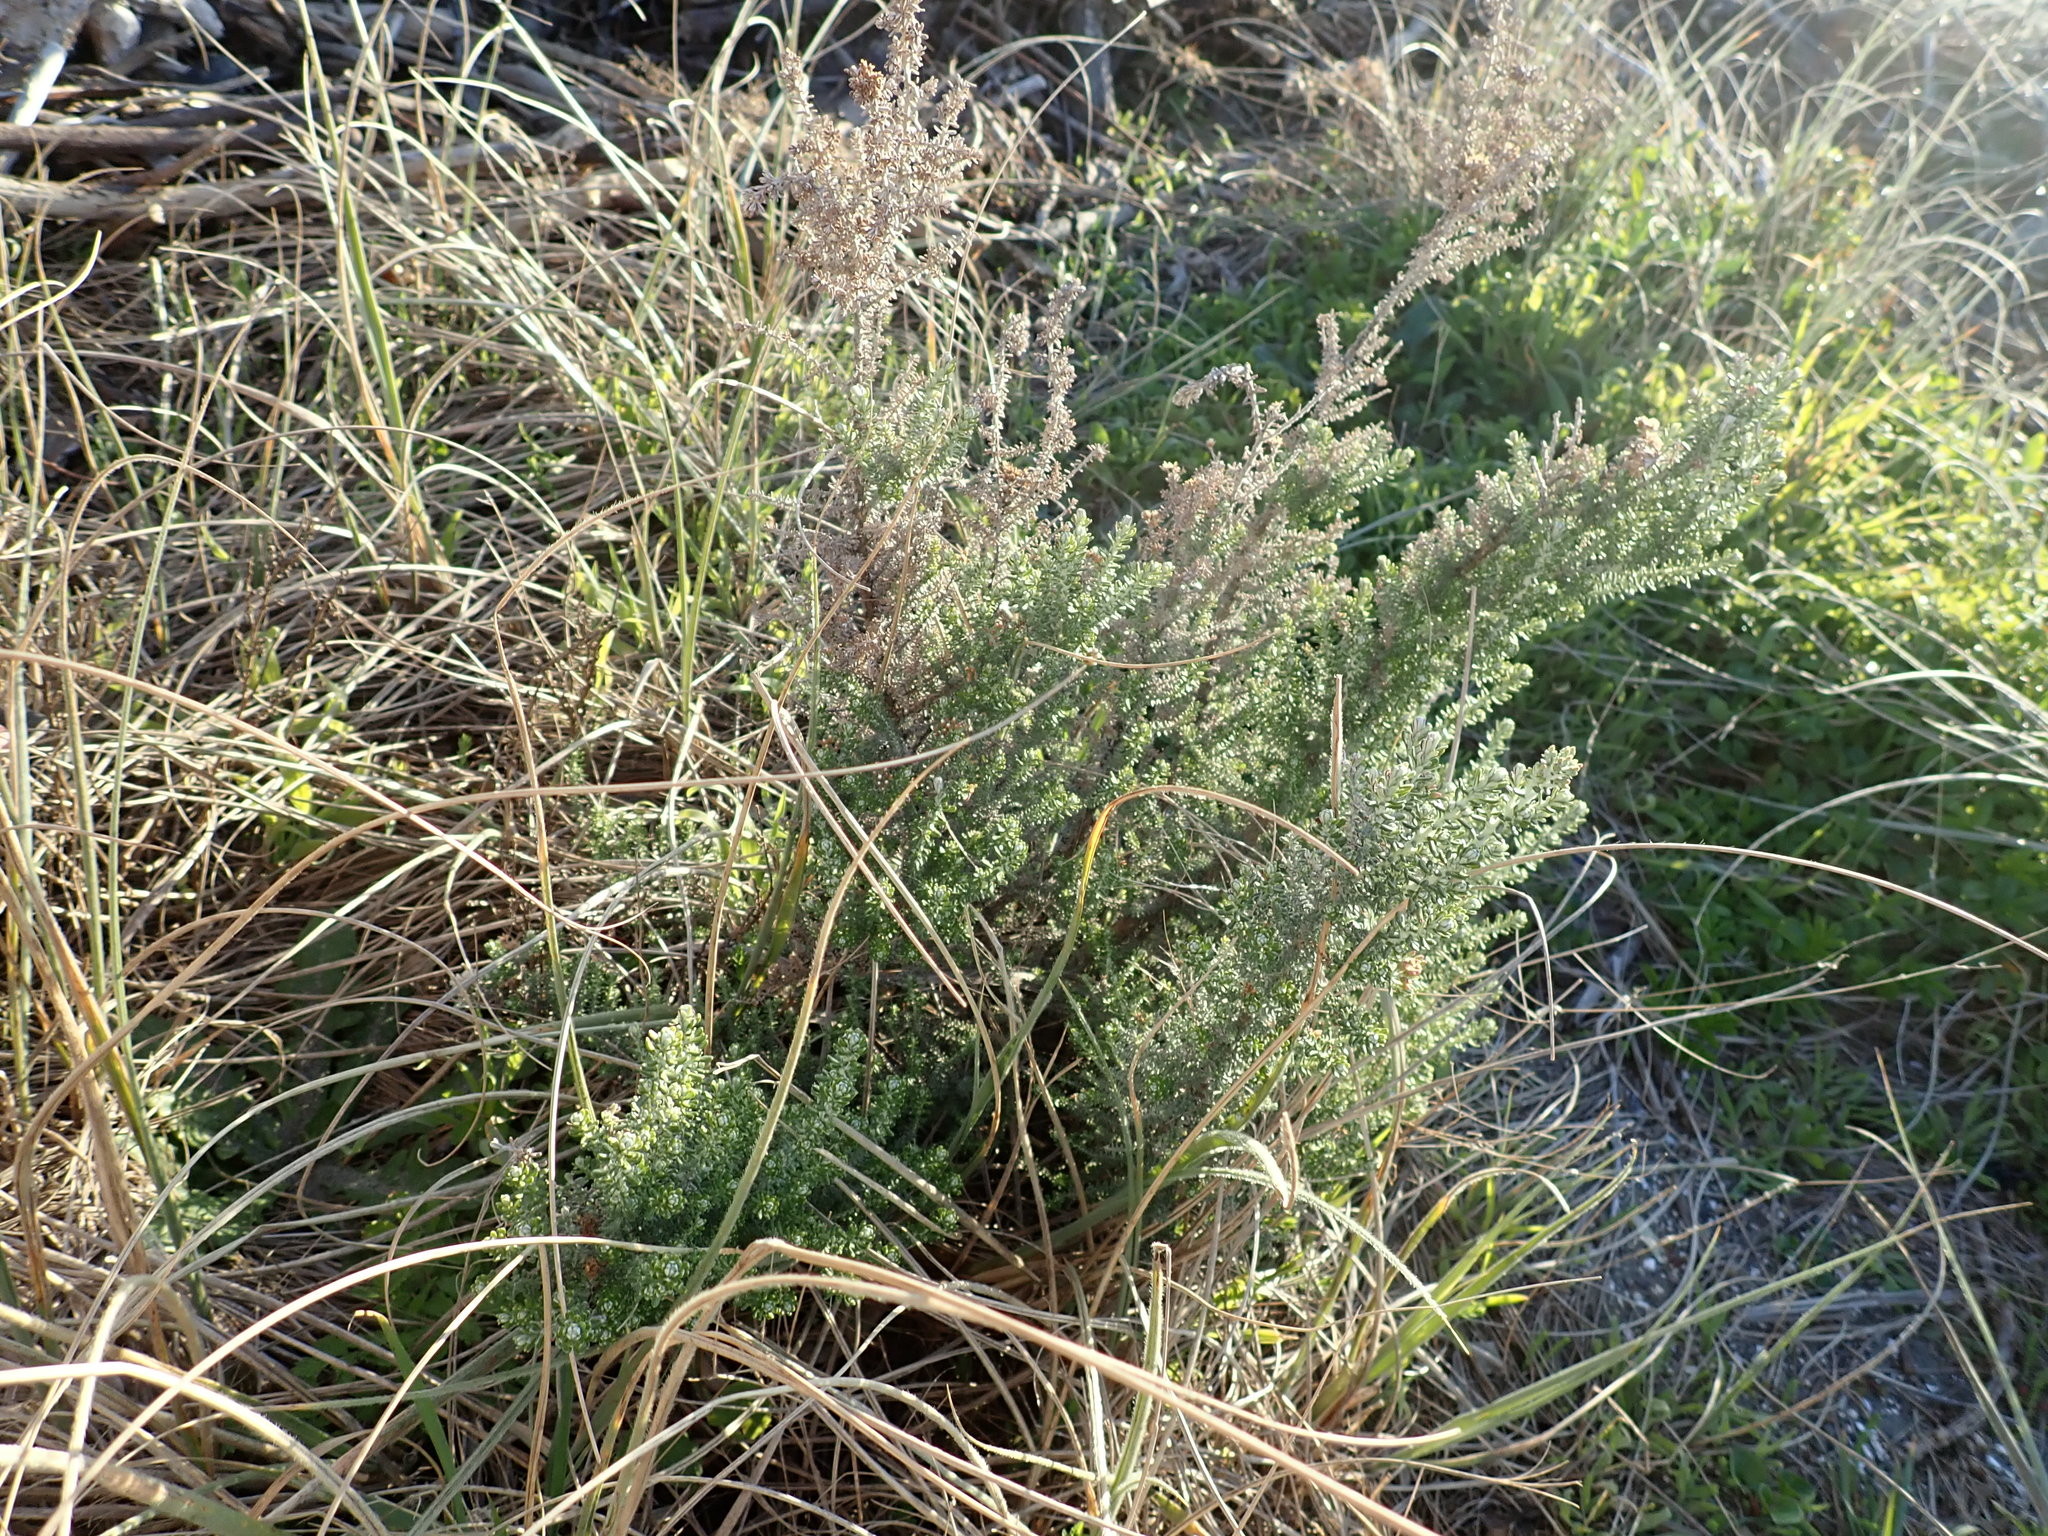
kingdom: Plantae
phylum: Tracheophyta
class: Magnoliopsida
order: Asterales
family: Asteraceae
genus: Ozothamnus
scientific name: Ozothamnus leptophyllus
